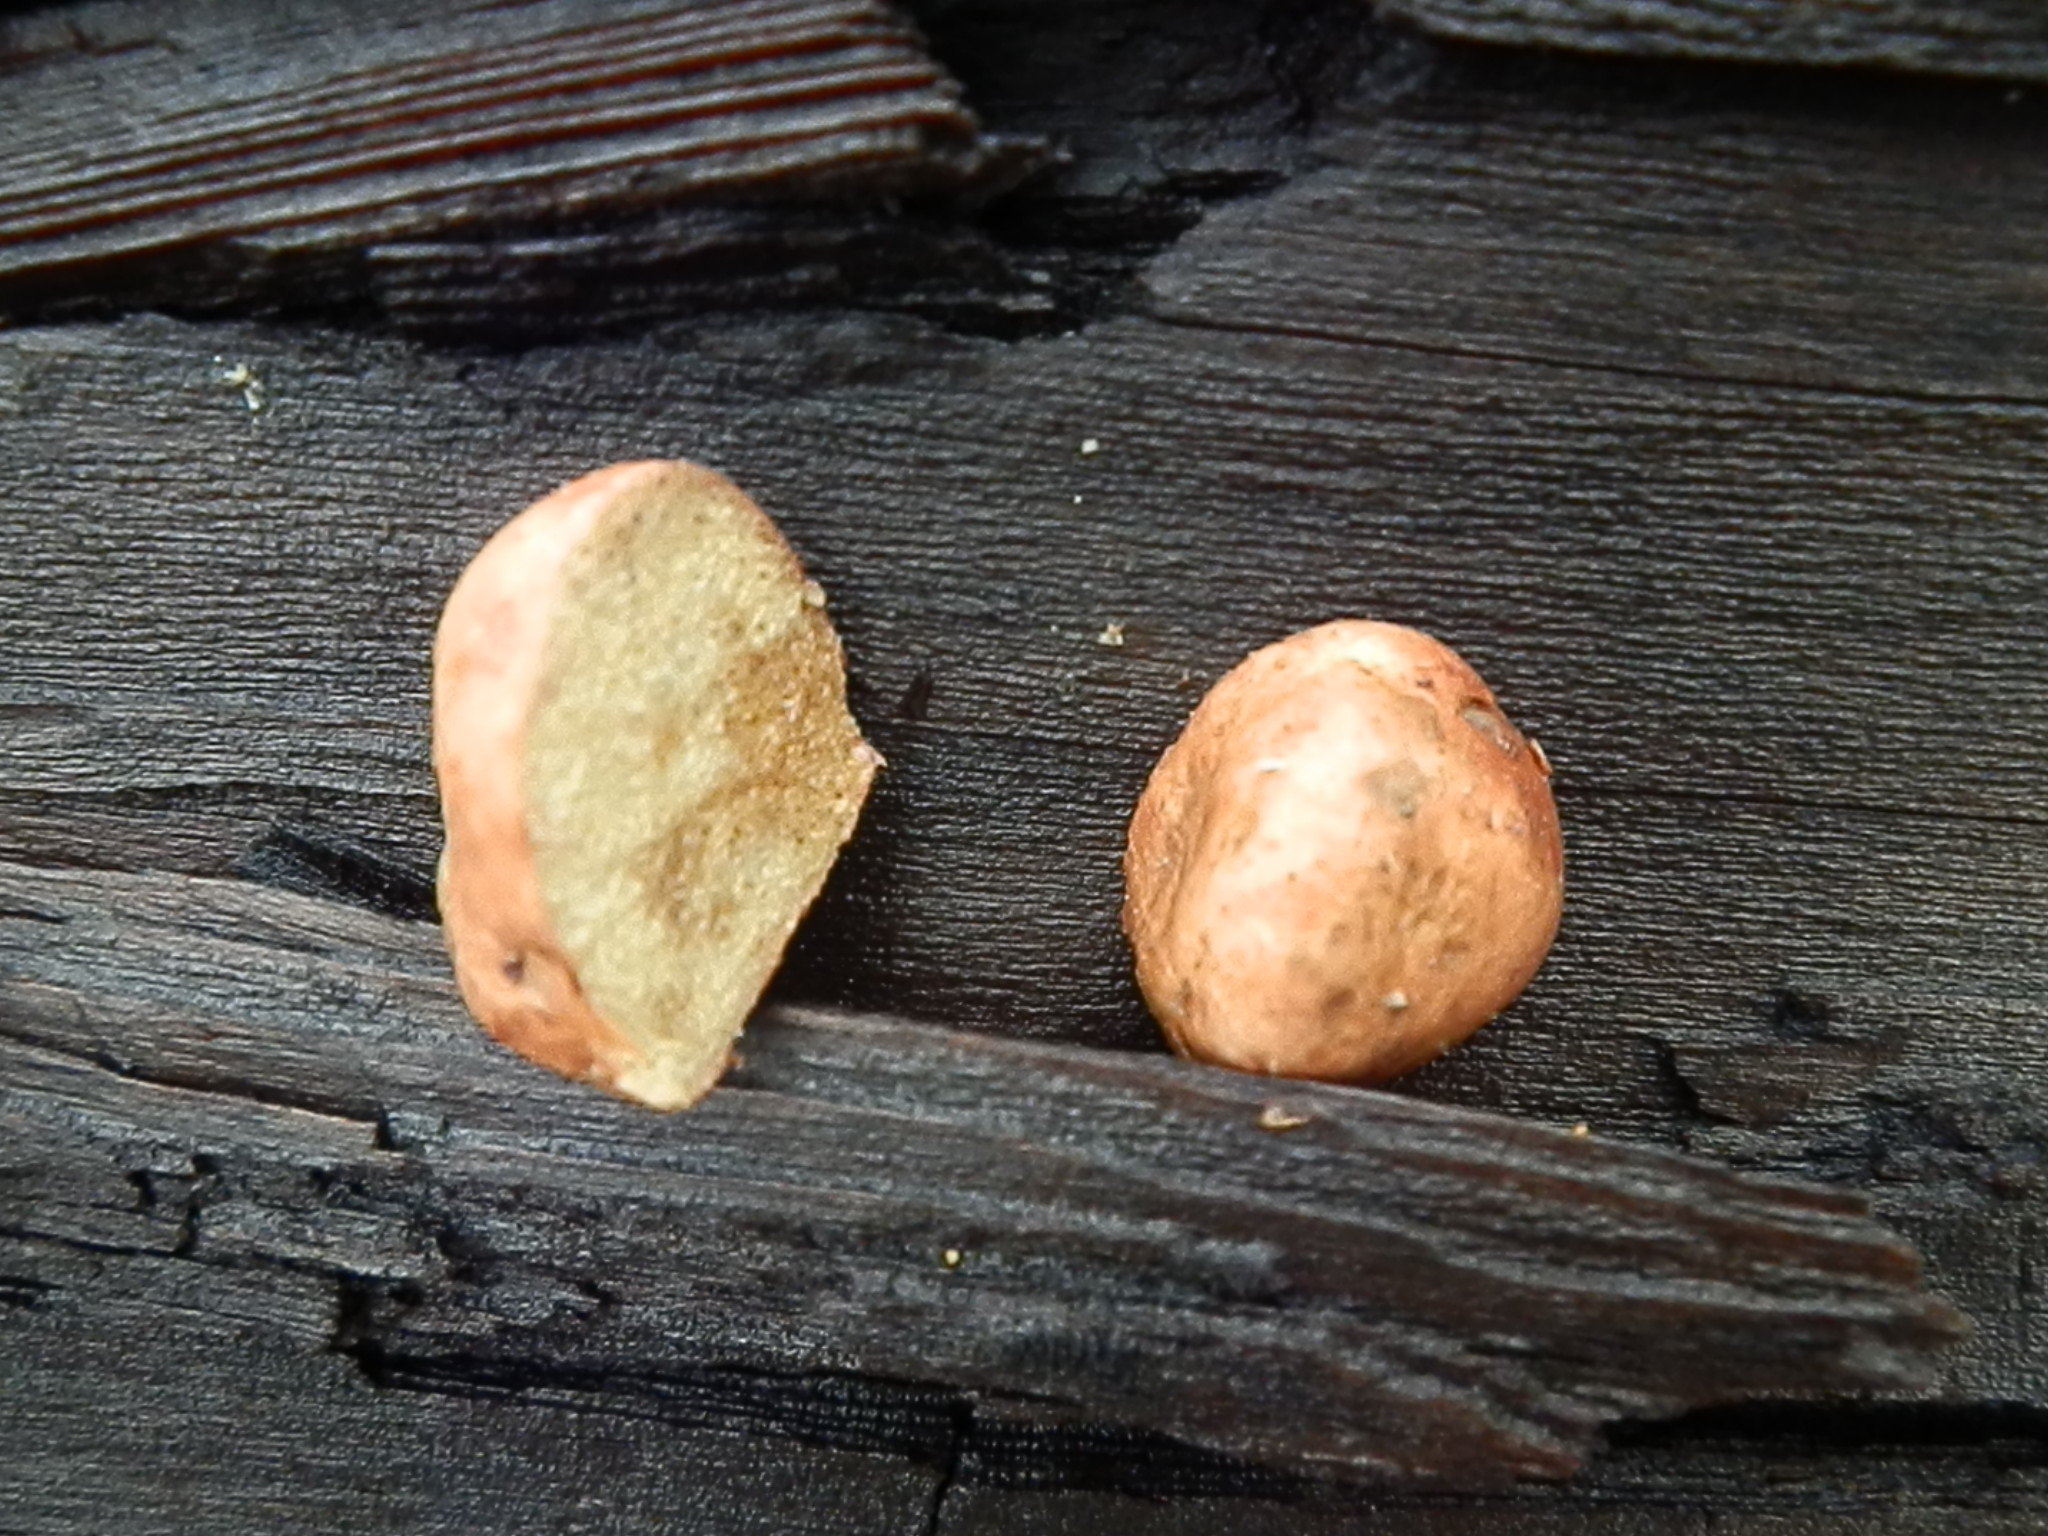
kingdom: Fungi
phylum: Basidiomycota
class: Agaricomycetes
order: Boletales
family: Rhizopogonaceae
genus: Rhizopogon
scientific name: Rhizopogon occidentalis
